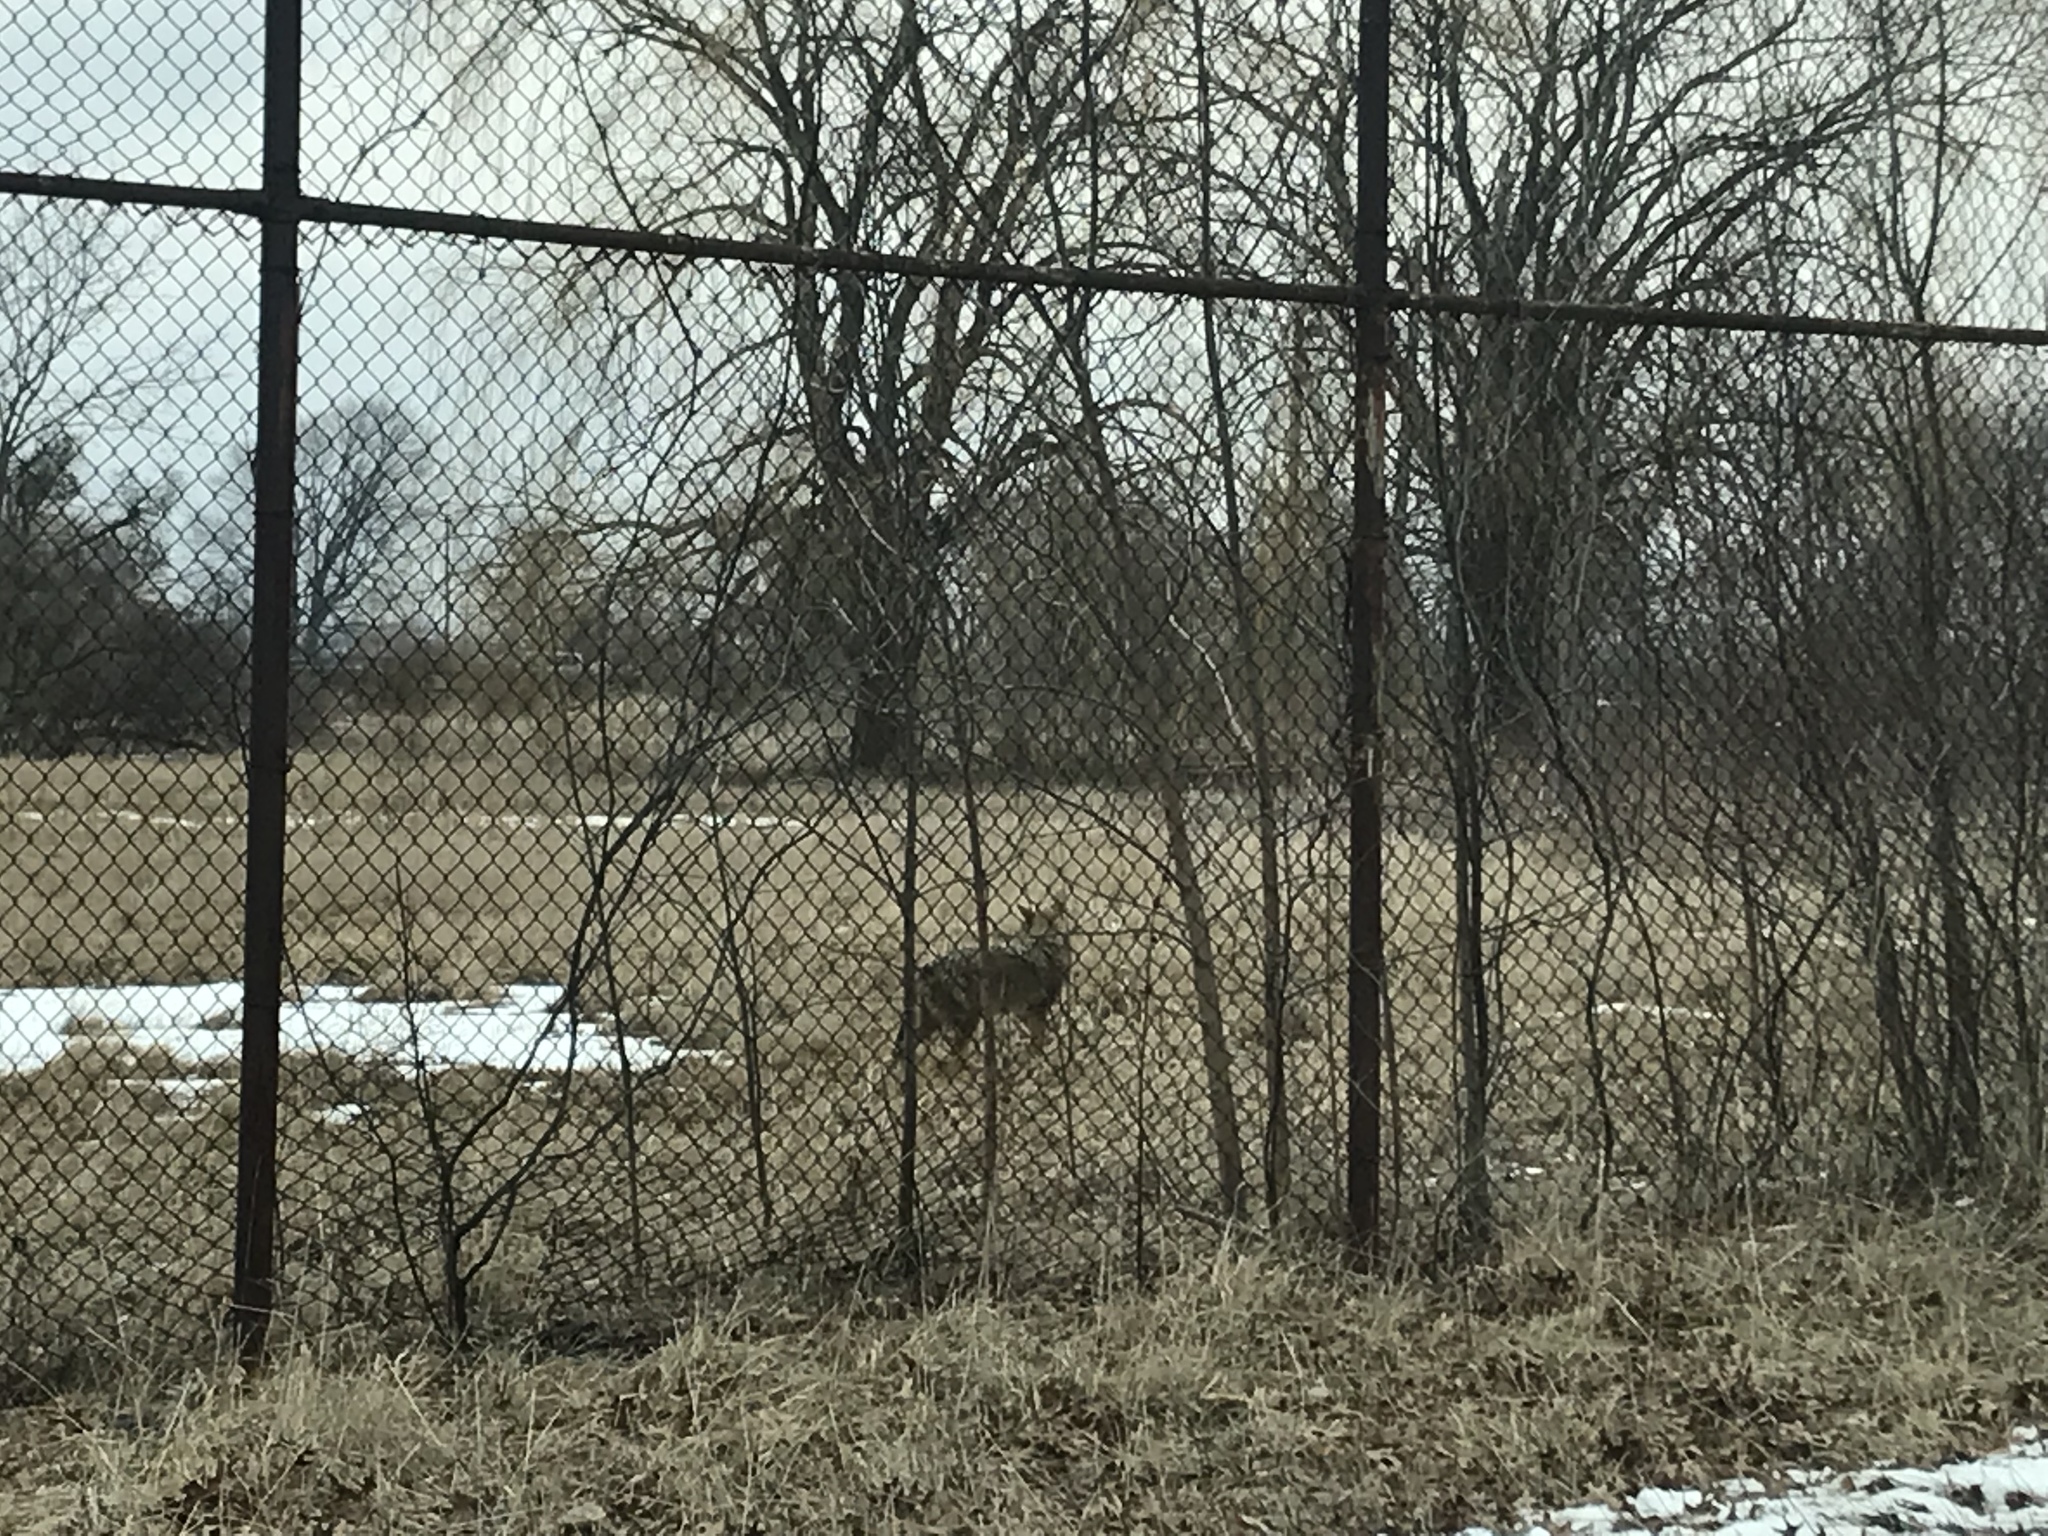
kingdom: Animalia
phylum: Chordata
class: Mammalia
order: Carnivora
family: Canidae
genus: Canis
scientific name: Canis latrans
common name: Coyote
